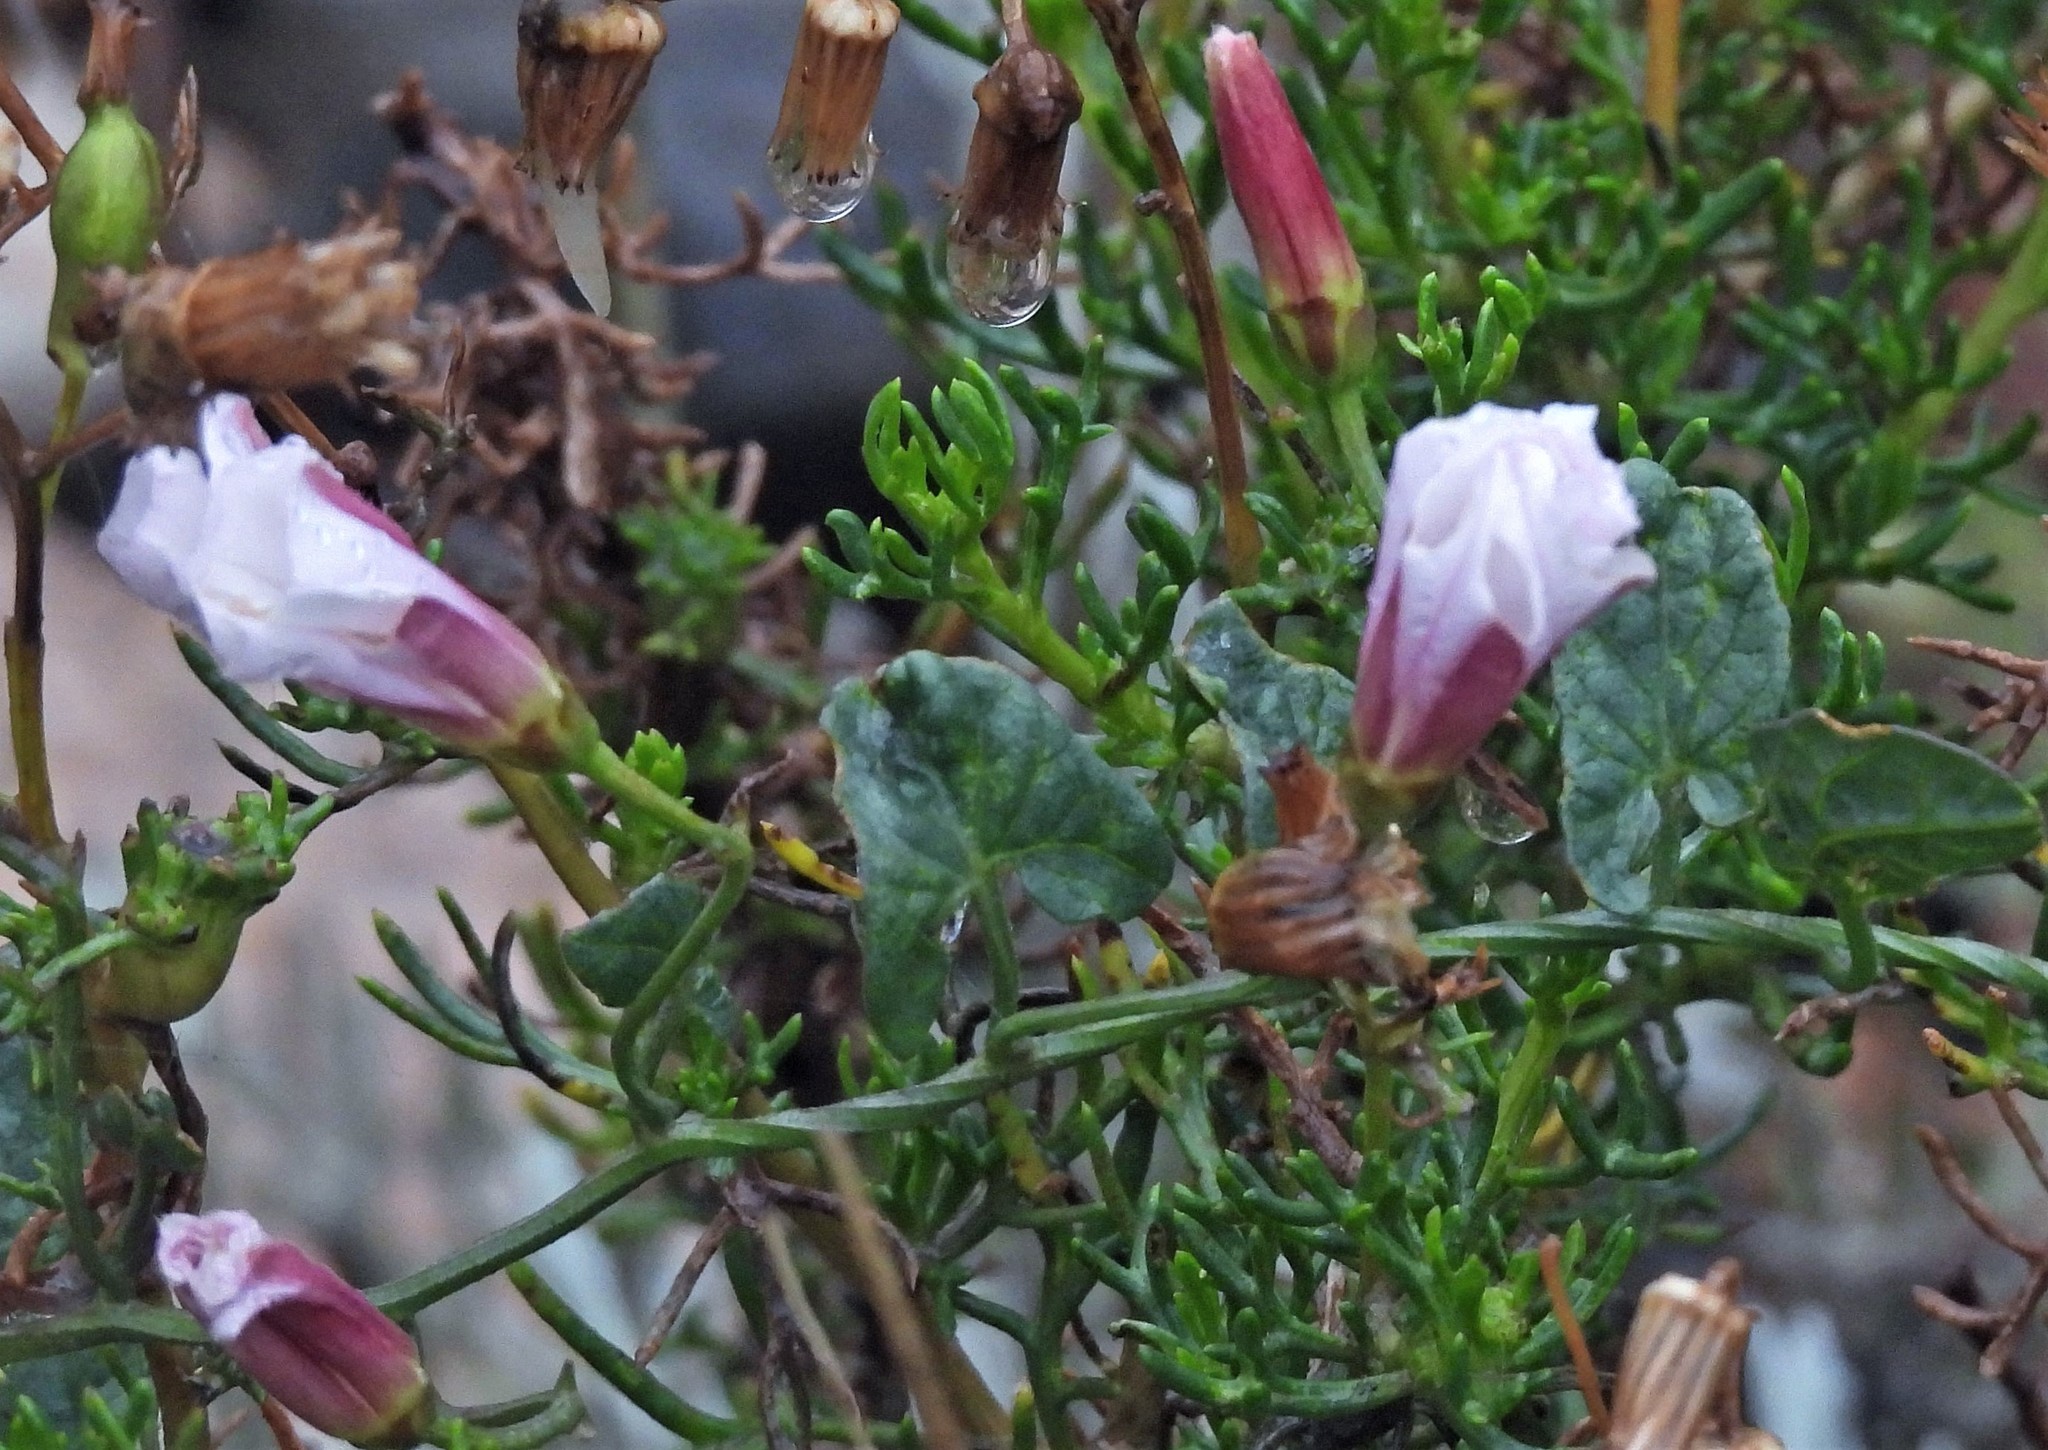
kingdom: Plantae
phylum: Tracheophyta
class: Magnoliopsida
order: Solanales
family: Convolvulaceae
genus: Convolvulus
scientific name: Convolvulus arvensis
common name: Field bindweed
